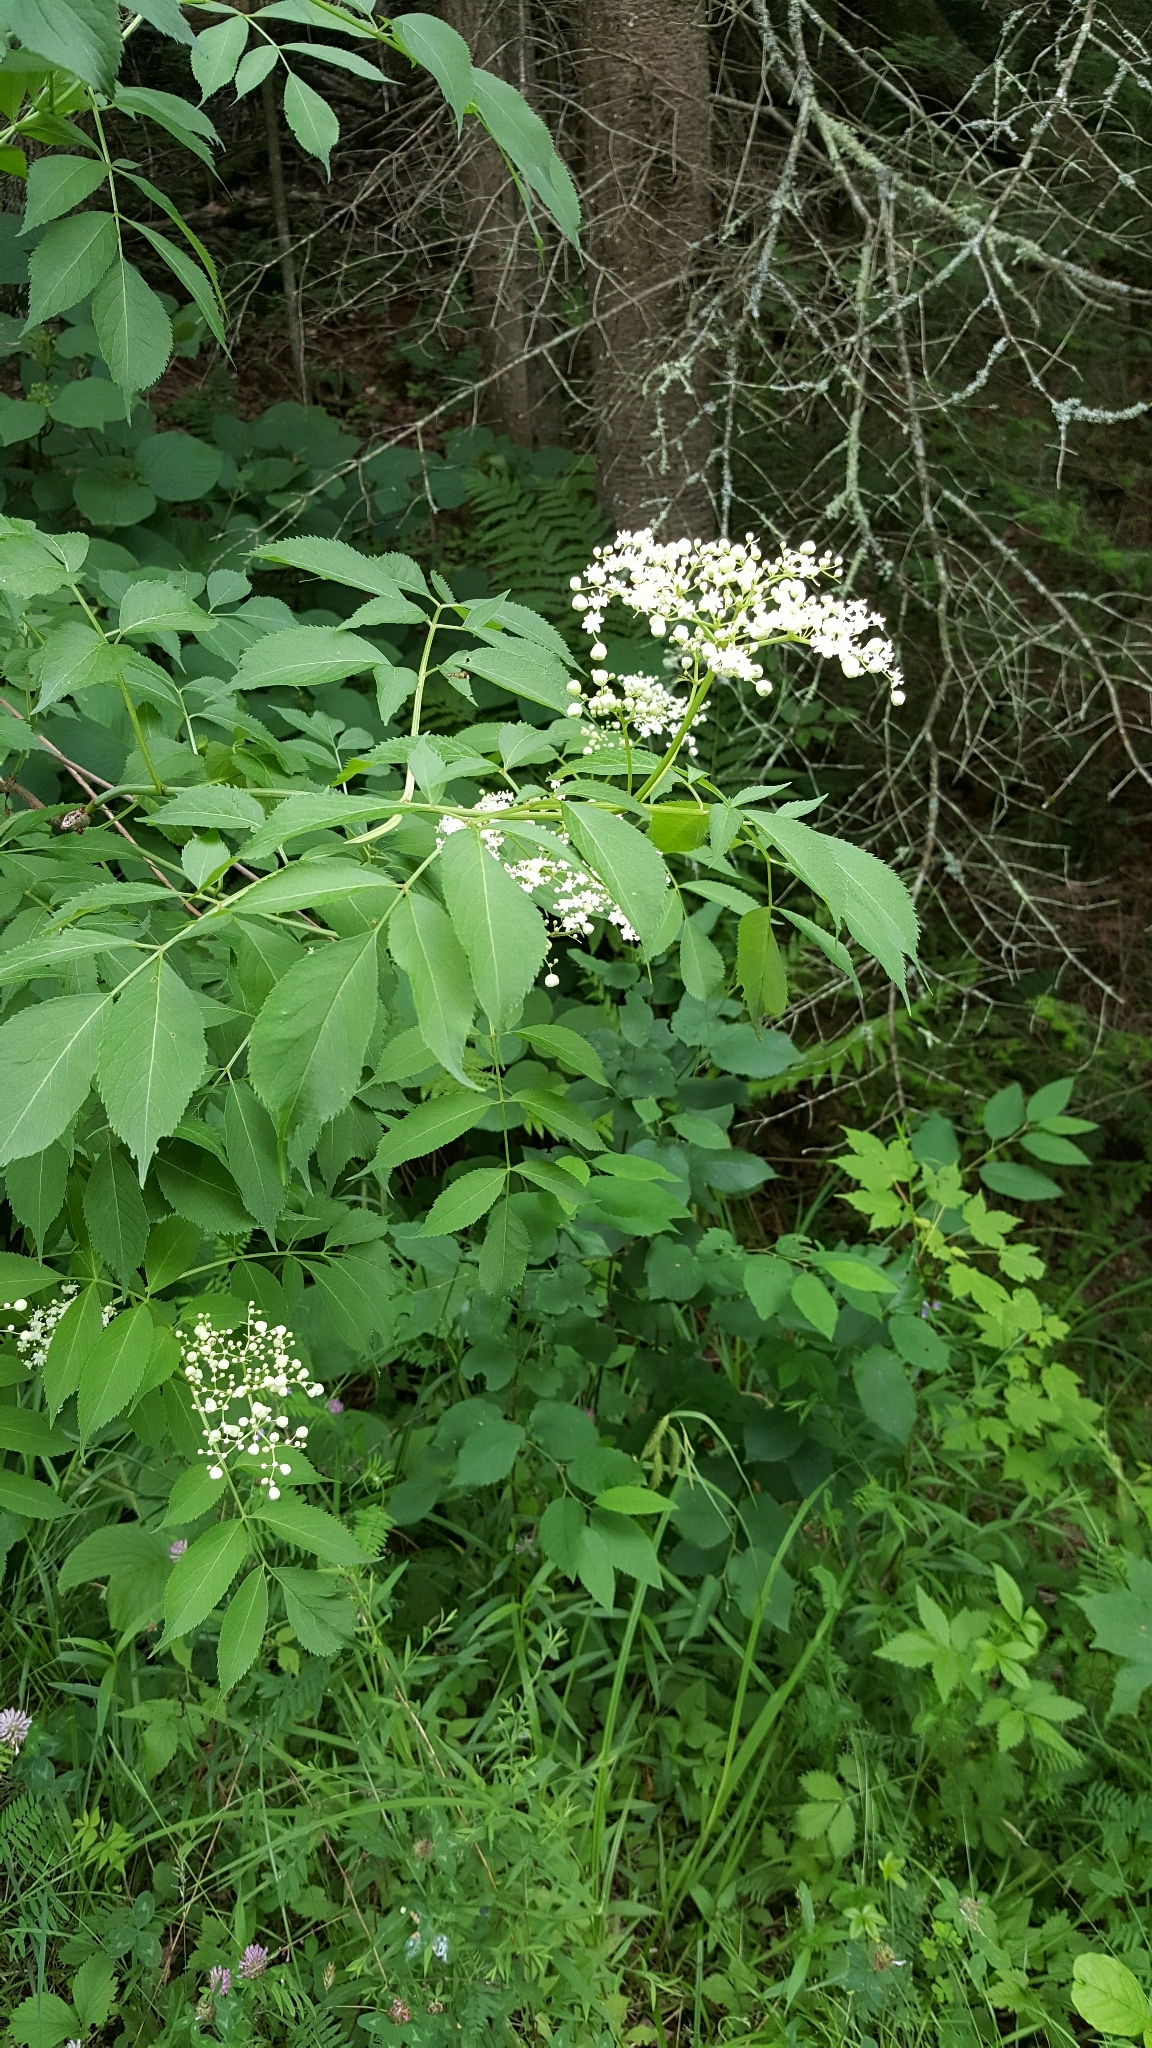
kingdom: Plantae
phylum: Tracheophyta
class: Magnoliopsida
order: Dipsacales
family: Viburnaceae
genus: Sambucus
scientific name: Sambucus canadensis
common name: American elder
